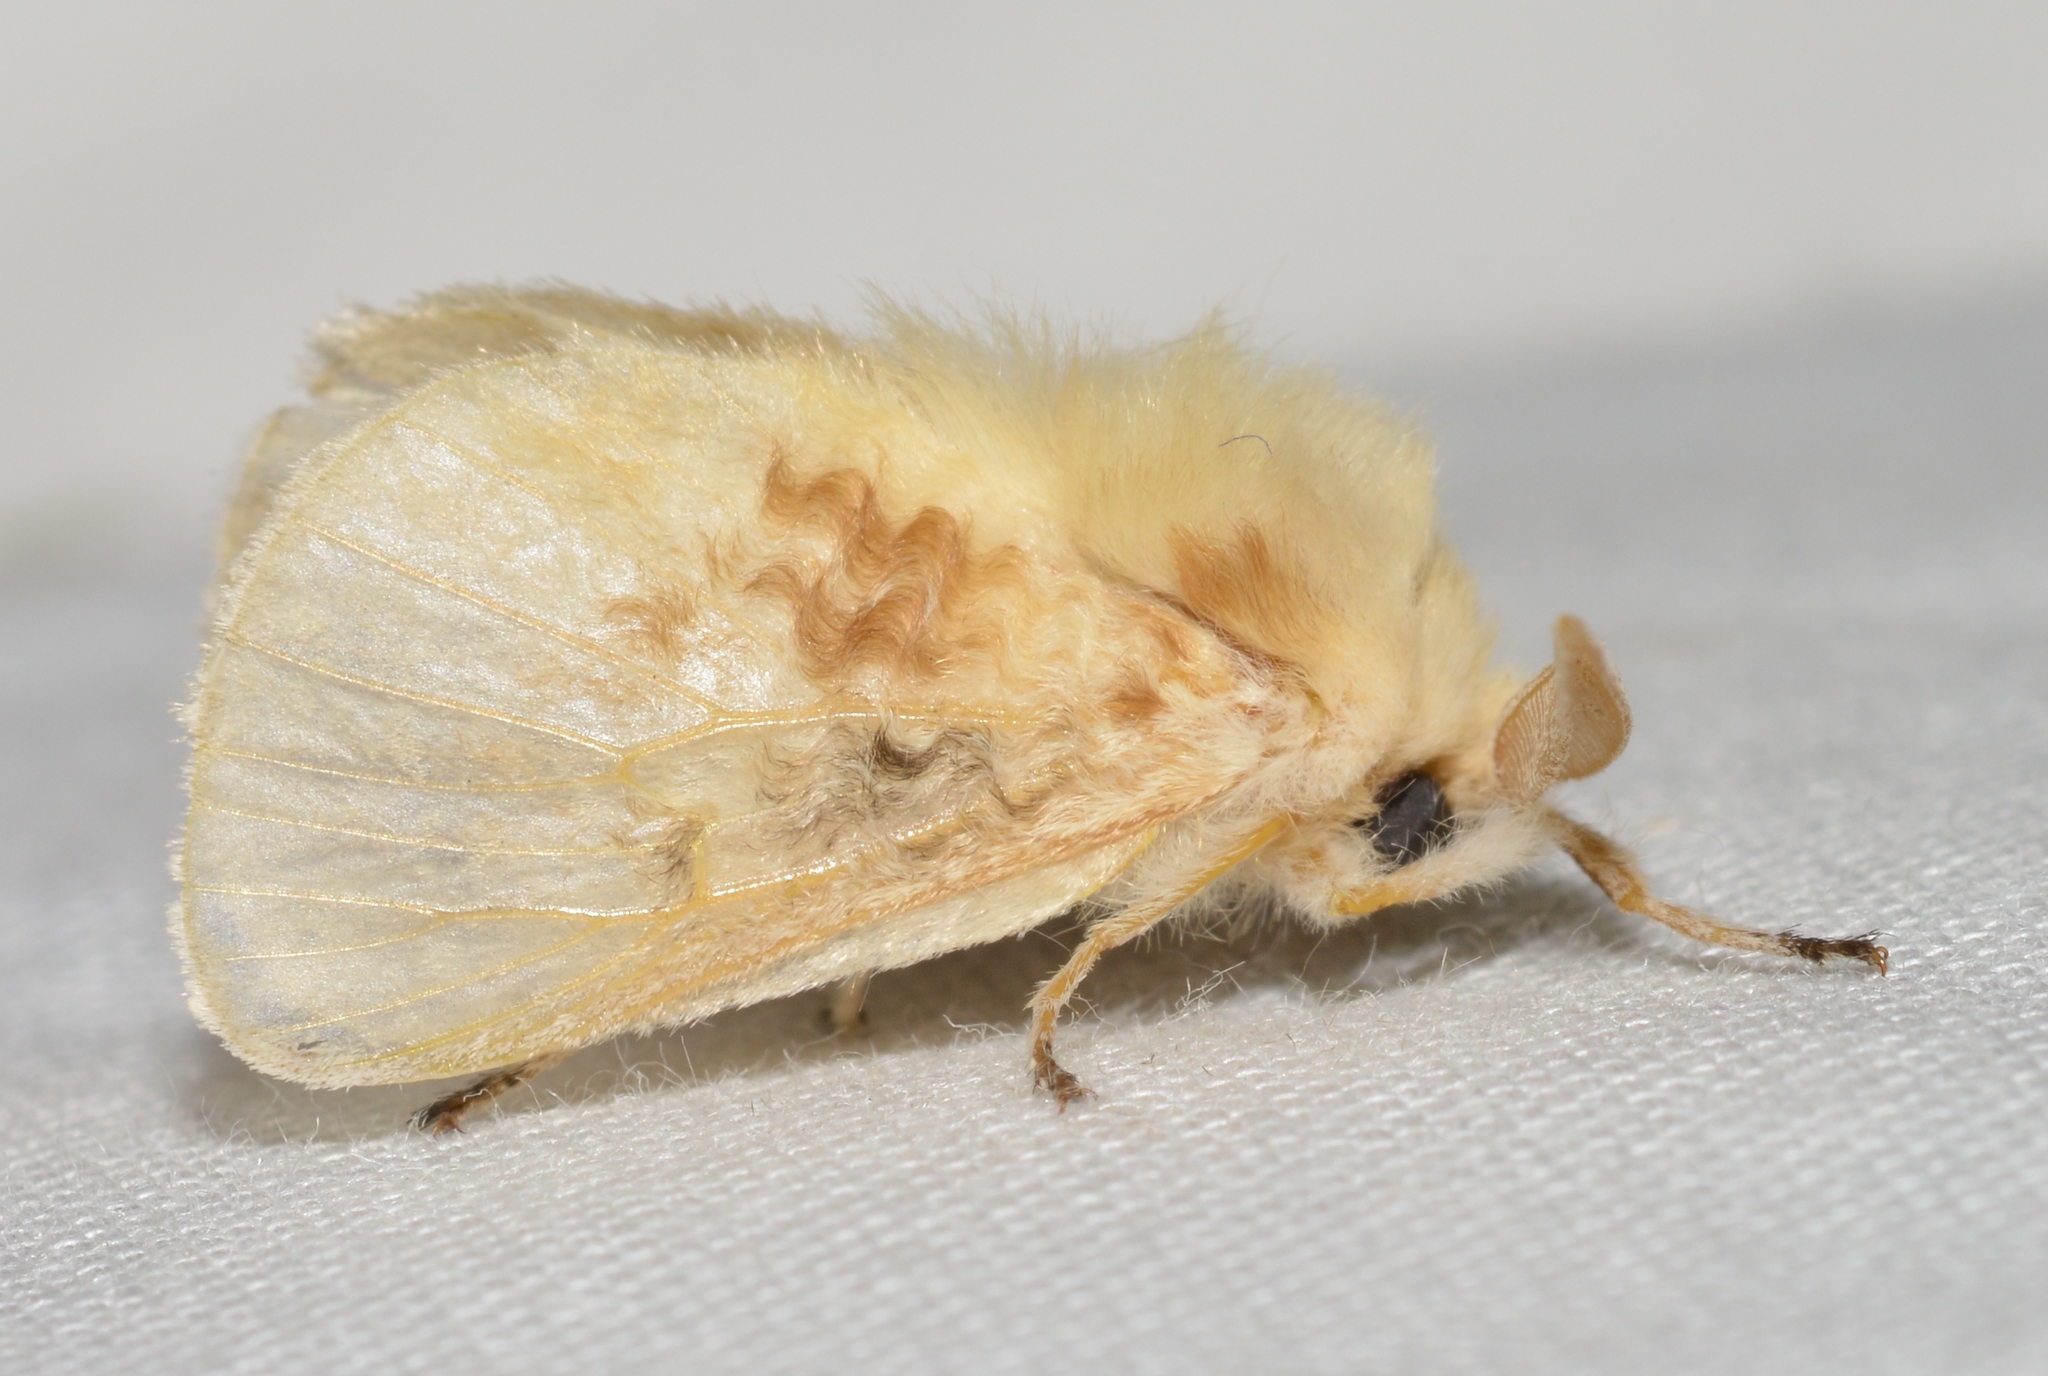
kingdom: Animalia
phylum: Arthropoda
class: Insecta
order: Lepidoptera
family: Megalopygidae
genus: Megalopyge
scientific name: Megalopyge crispata
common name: Black-waved flannel moth
